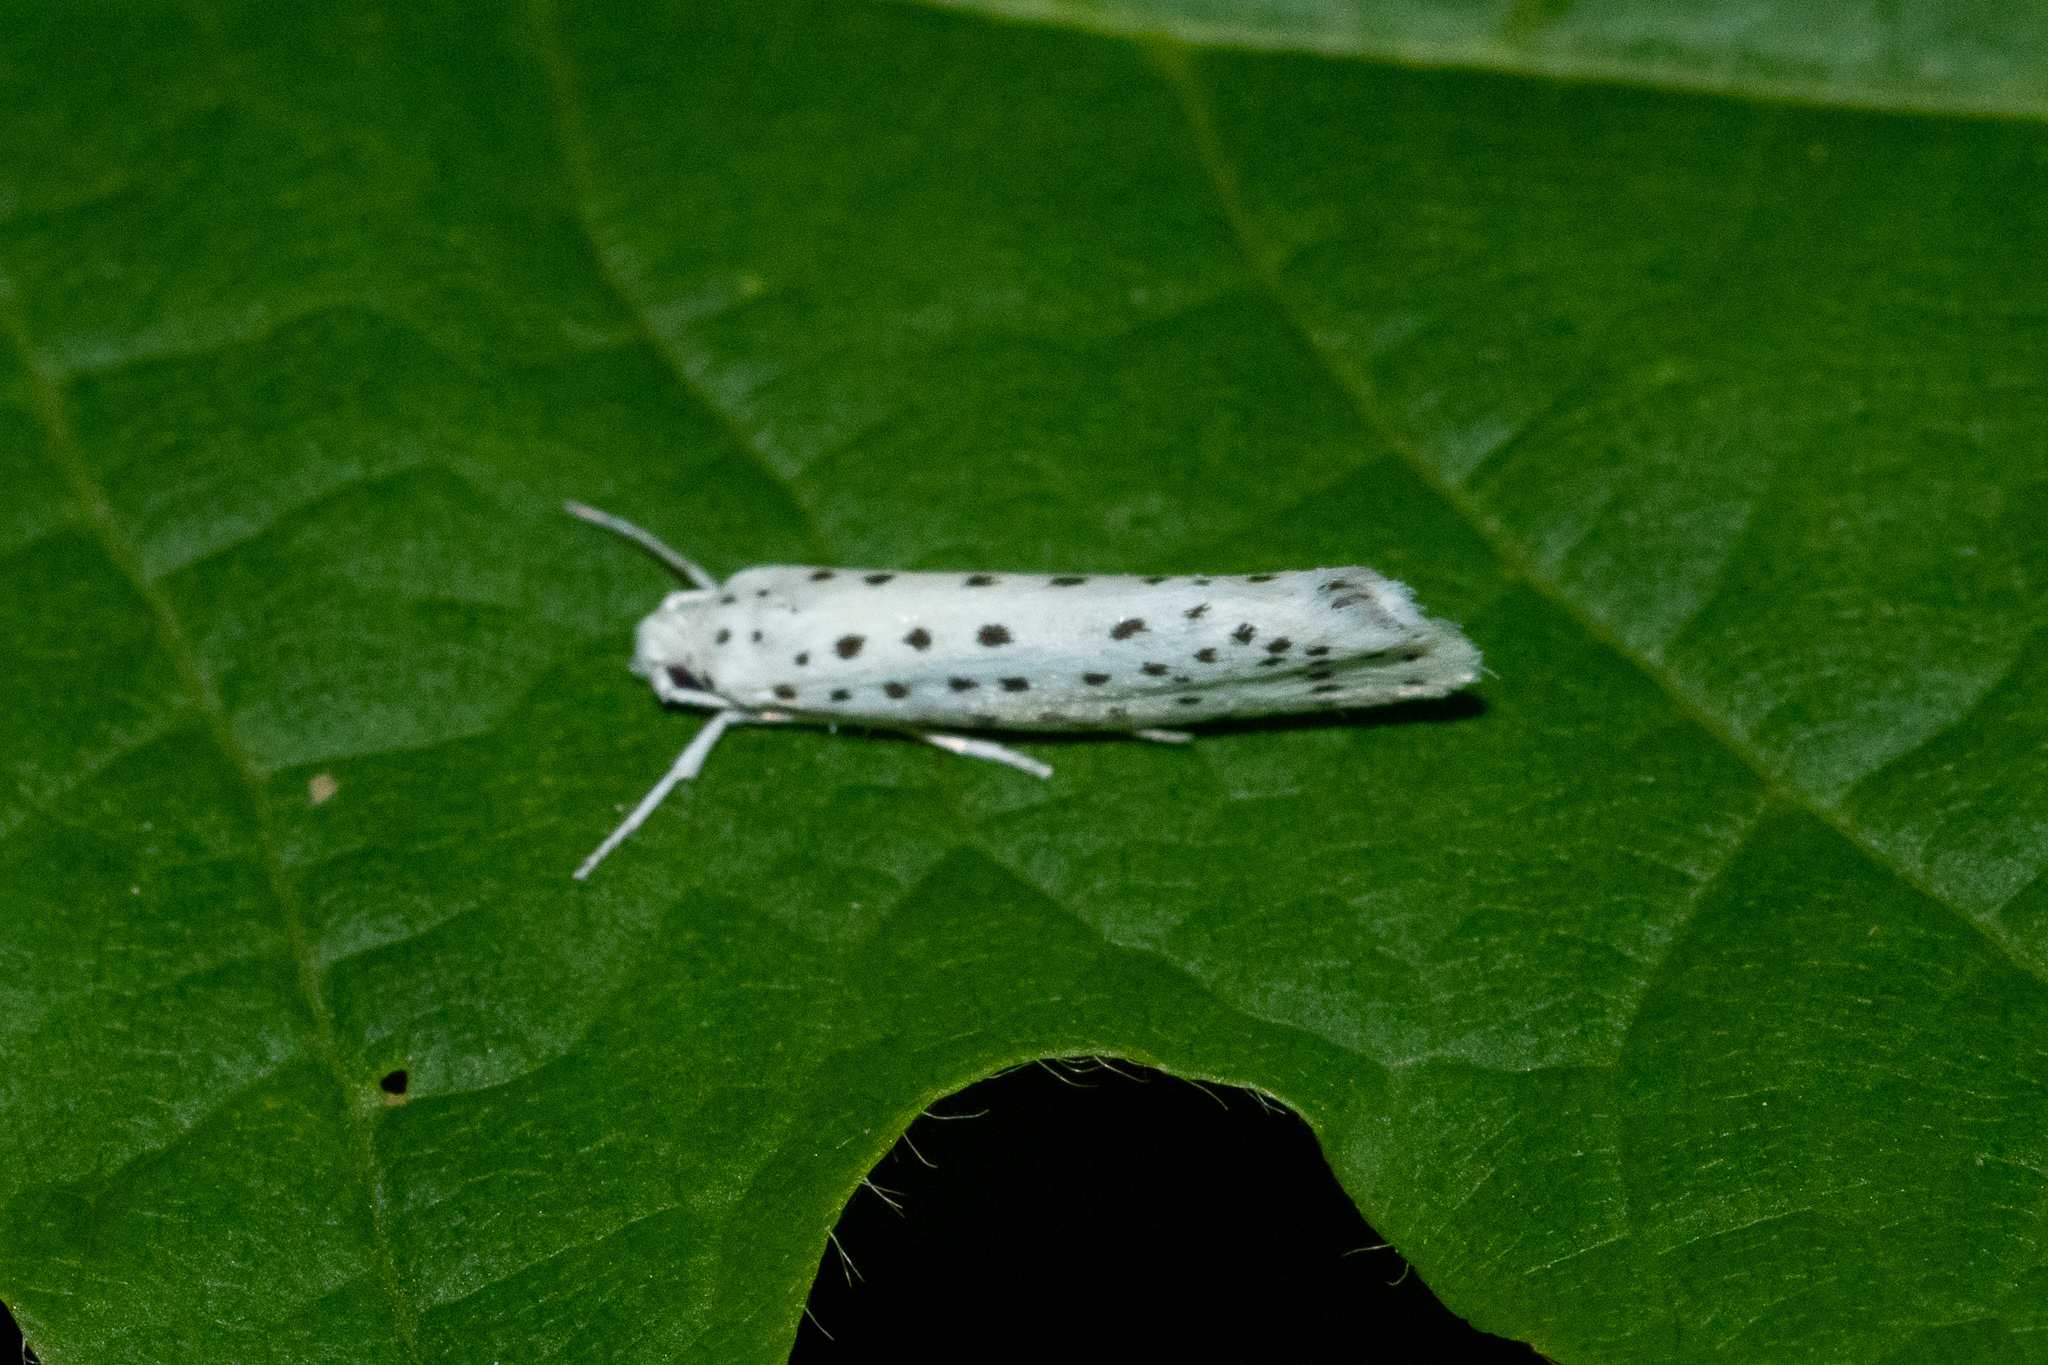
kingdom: Animalia
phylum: Arthropoda
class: Insecta
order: Lepidoptera
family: Yponomeutidae
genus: Yponomeuta
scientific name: Yponomeuta multipunctella
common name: American ermine moth
